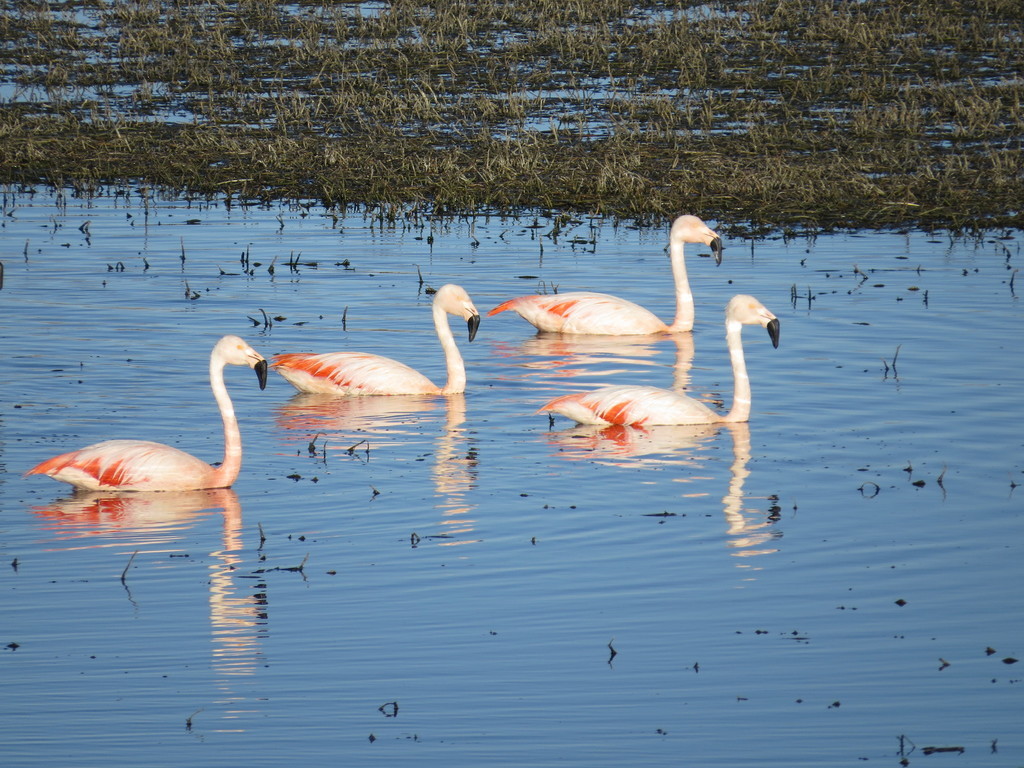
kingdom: Animalia
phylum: Chordata
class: Aves
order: Phoenicopteriformes
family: Phoenicopteridae
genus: Phoenicopterus
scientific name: Phoenicopterus chilensis
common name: Chilean flamingo
